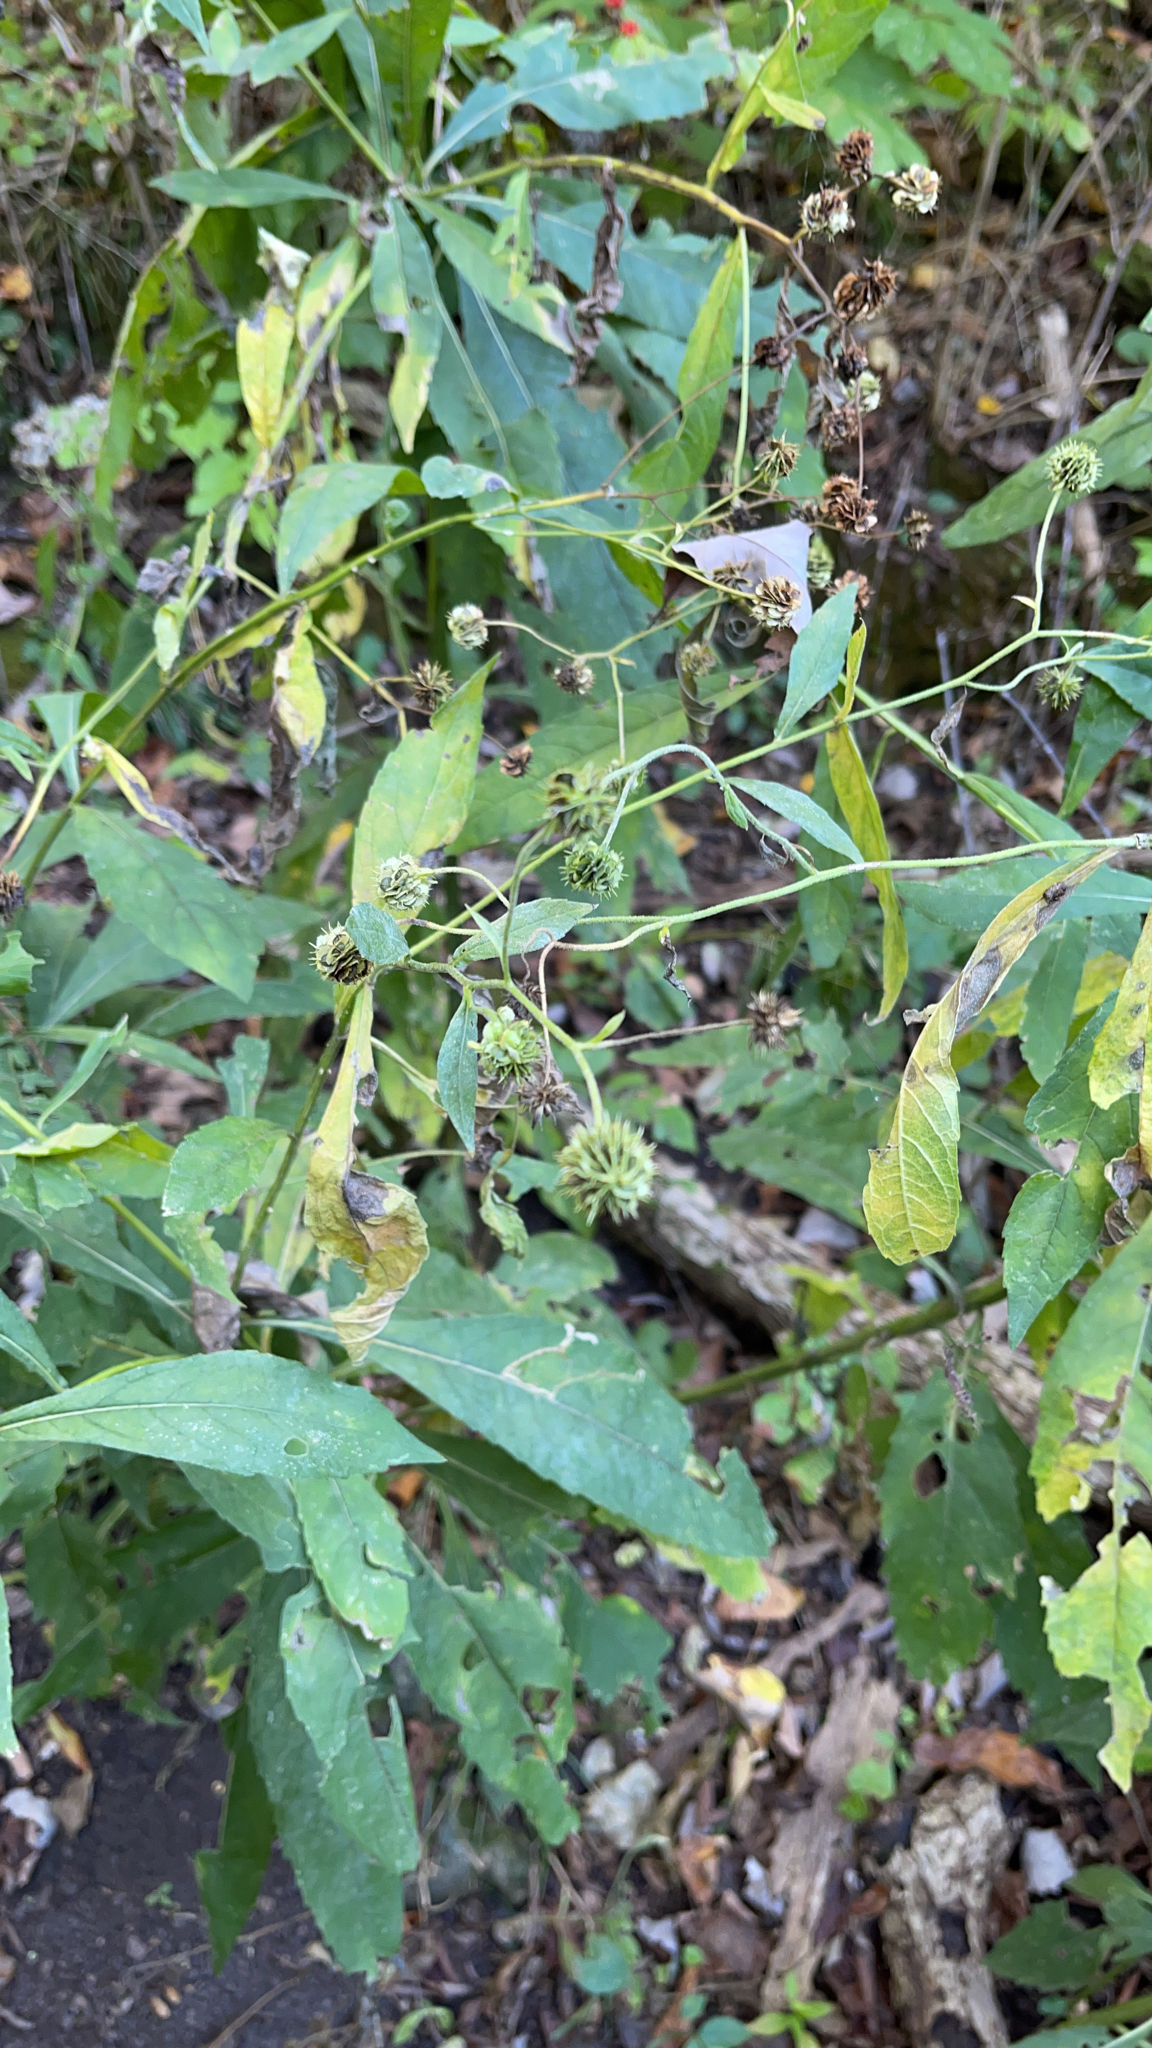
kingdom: Plantae
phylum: Tracheophyta
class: Magnoliopsida
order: Asterales
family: Asteraceae
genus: Verbesina
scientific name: Verbesina alternifolia
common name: Wingstem
